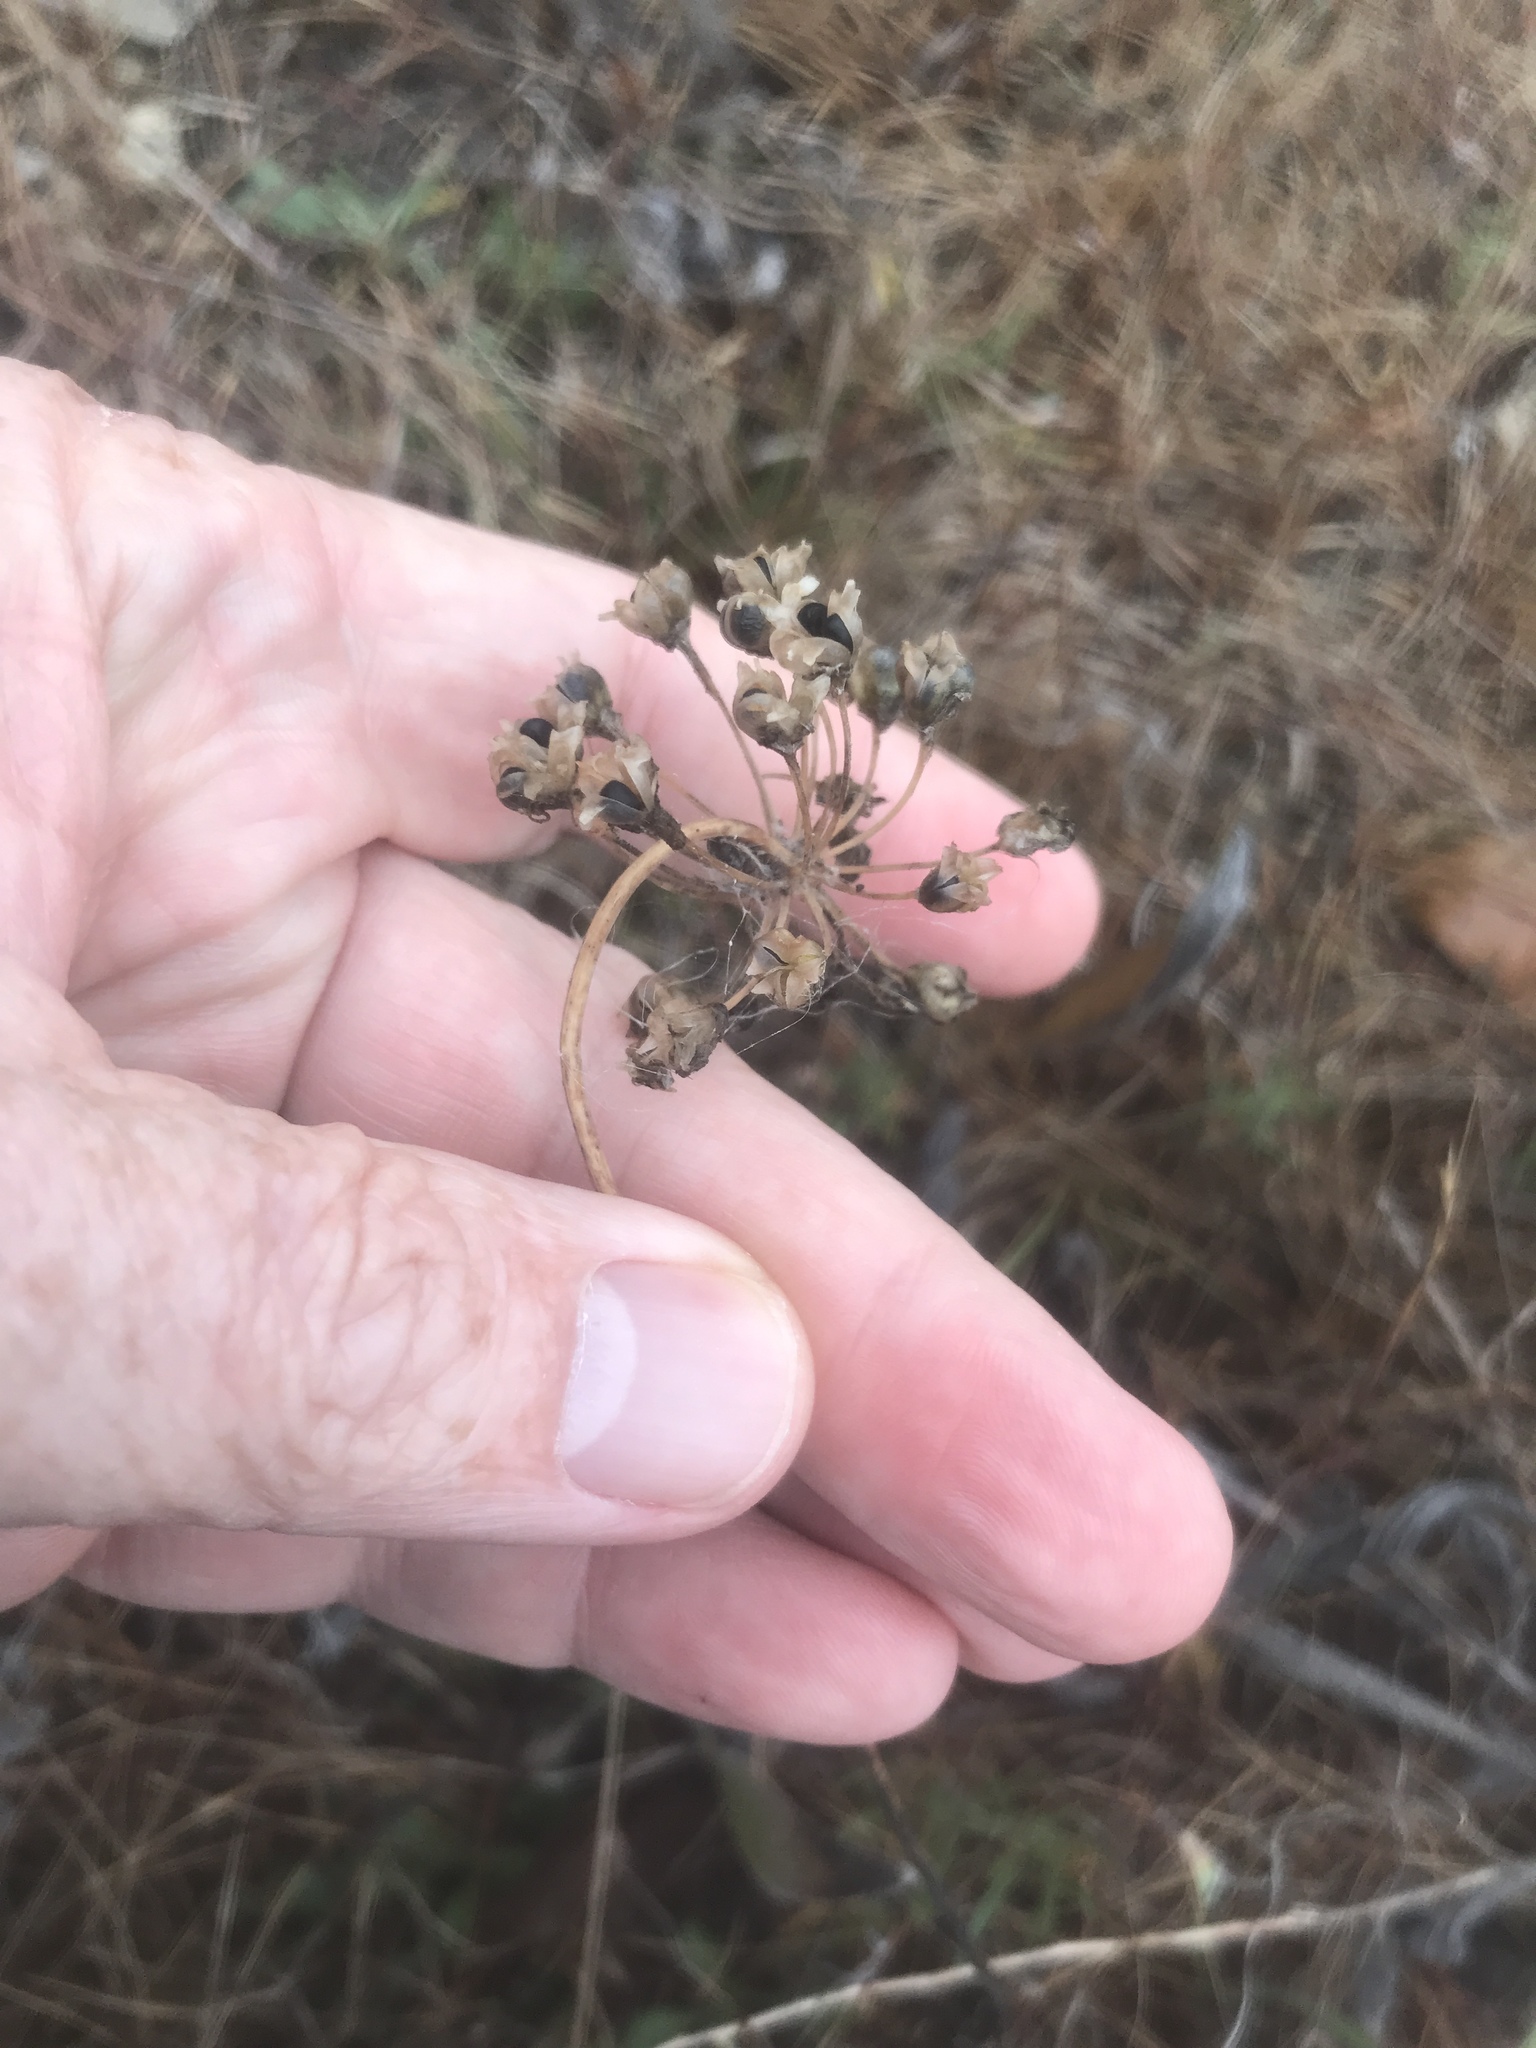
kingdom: Plantae
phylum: Tracheophyta
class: Liliopsida
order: Asparagales
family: Amaryllidaceae
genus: Allium
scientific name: Allium cernuum
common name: Nodding onion
